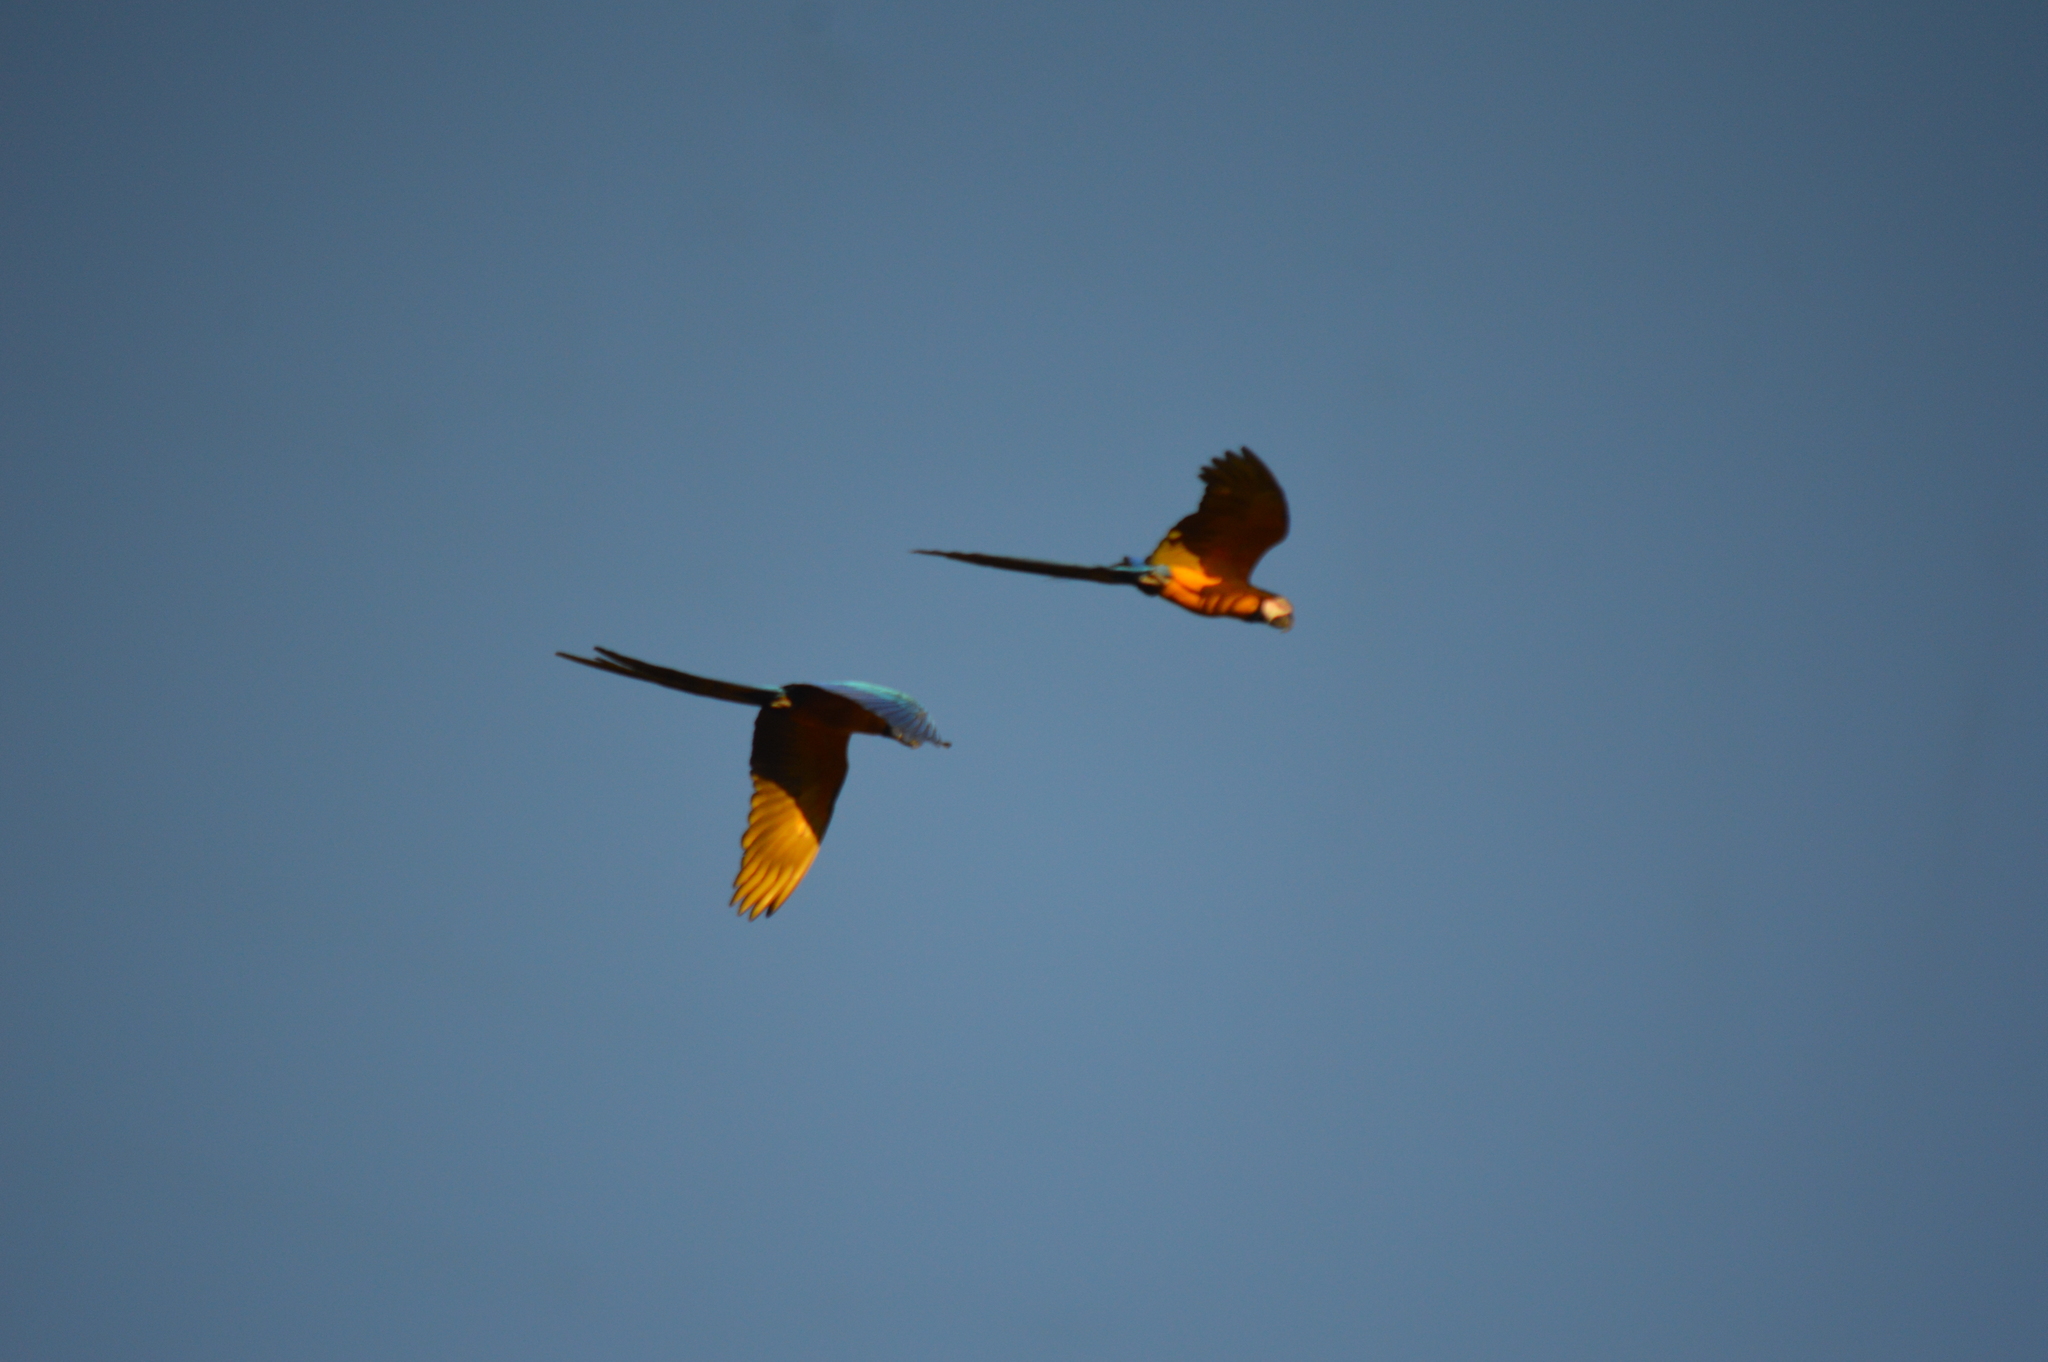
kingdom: Animalia
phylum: Chordata
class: Aves
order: Psittaciformes
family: Psittacidae
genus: Ara
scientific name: Ara ararauna
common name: Blue-and-yellow macaw
